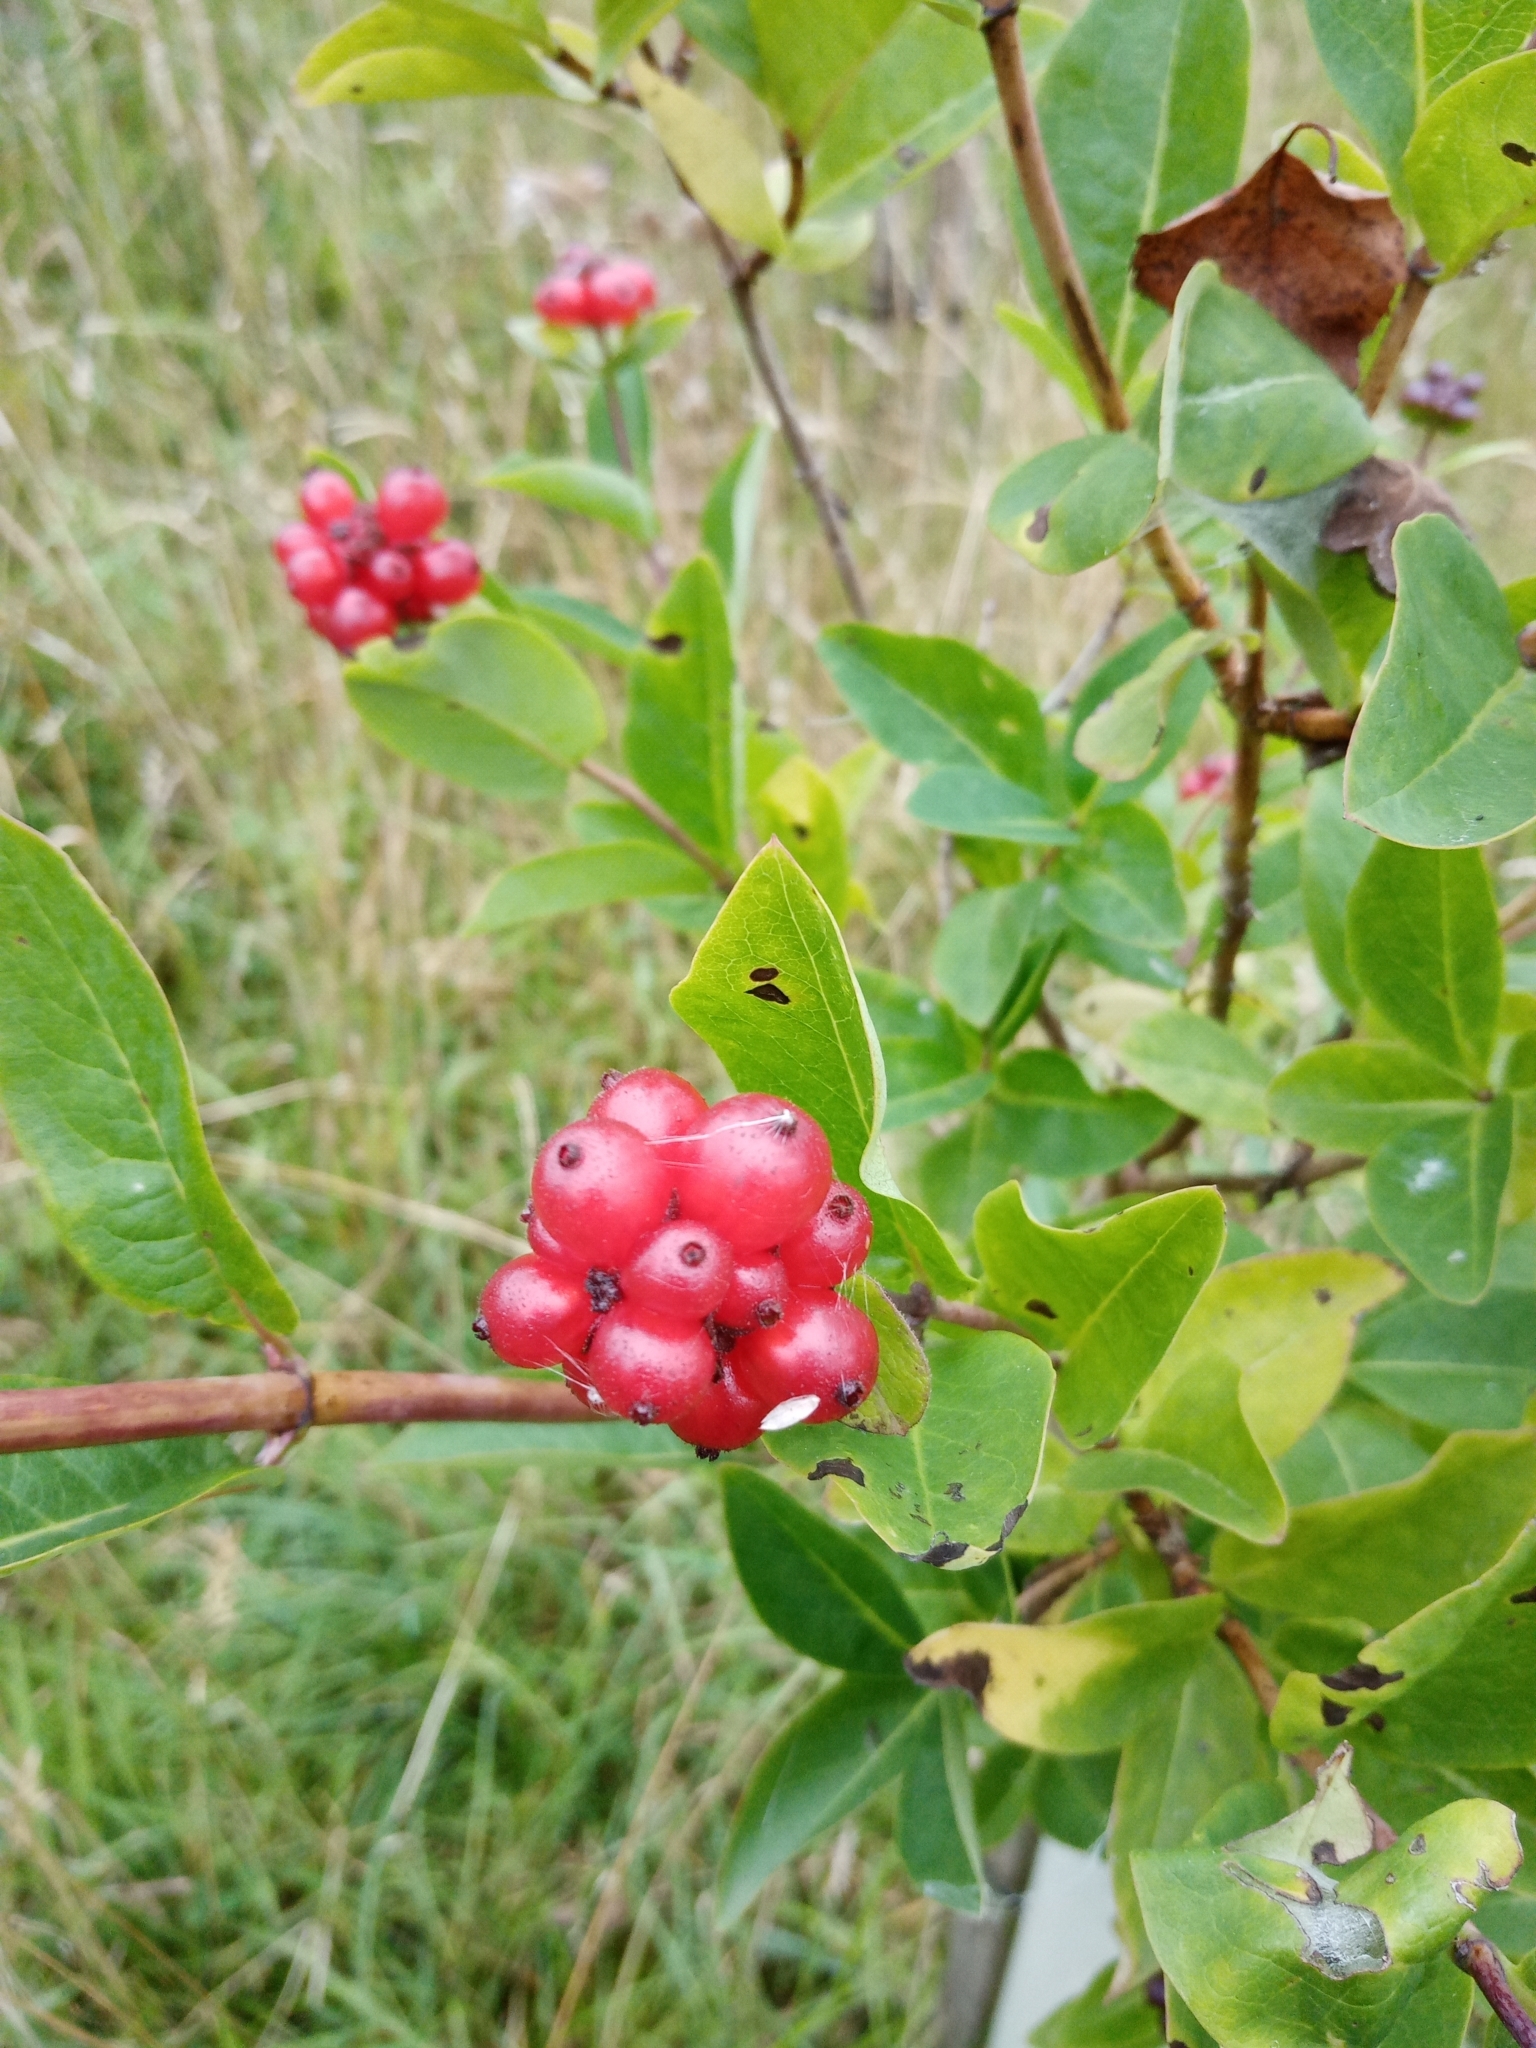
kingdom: Plantae
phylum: Tracheophyta
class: Magnoliopsida
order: Dipsacales
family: Caprifoliaceae
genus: Lonicera
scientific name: Lonicera periclymenum
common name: European honeysuckle
